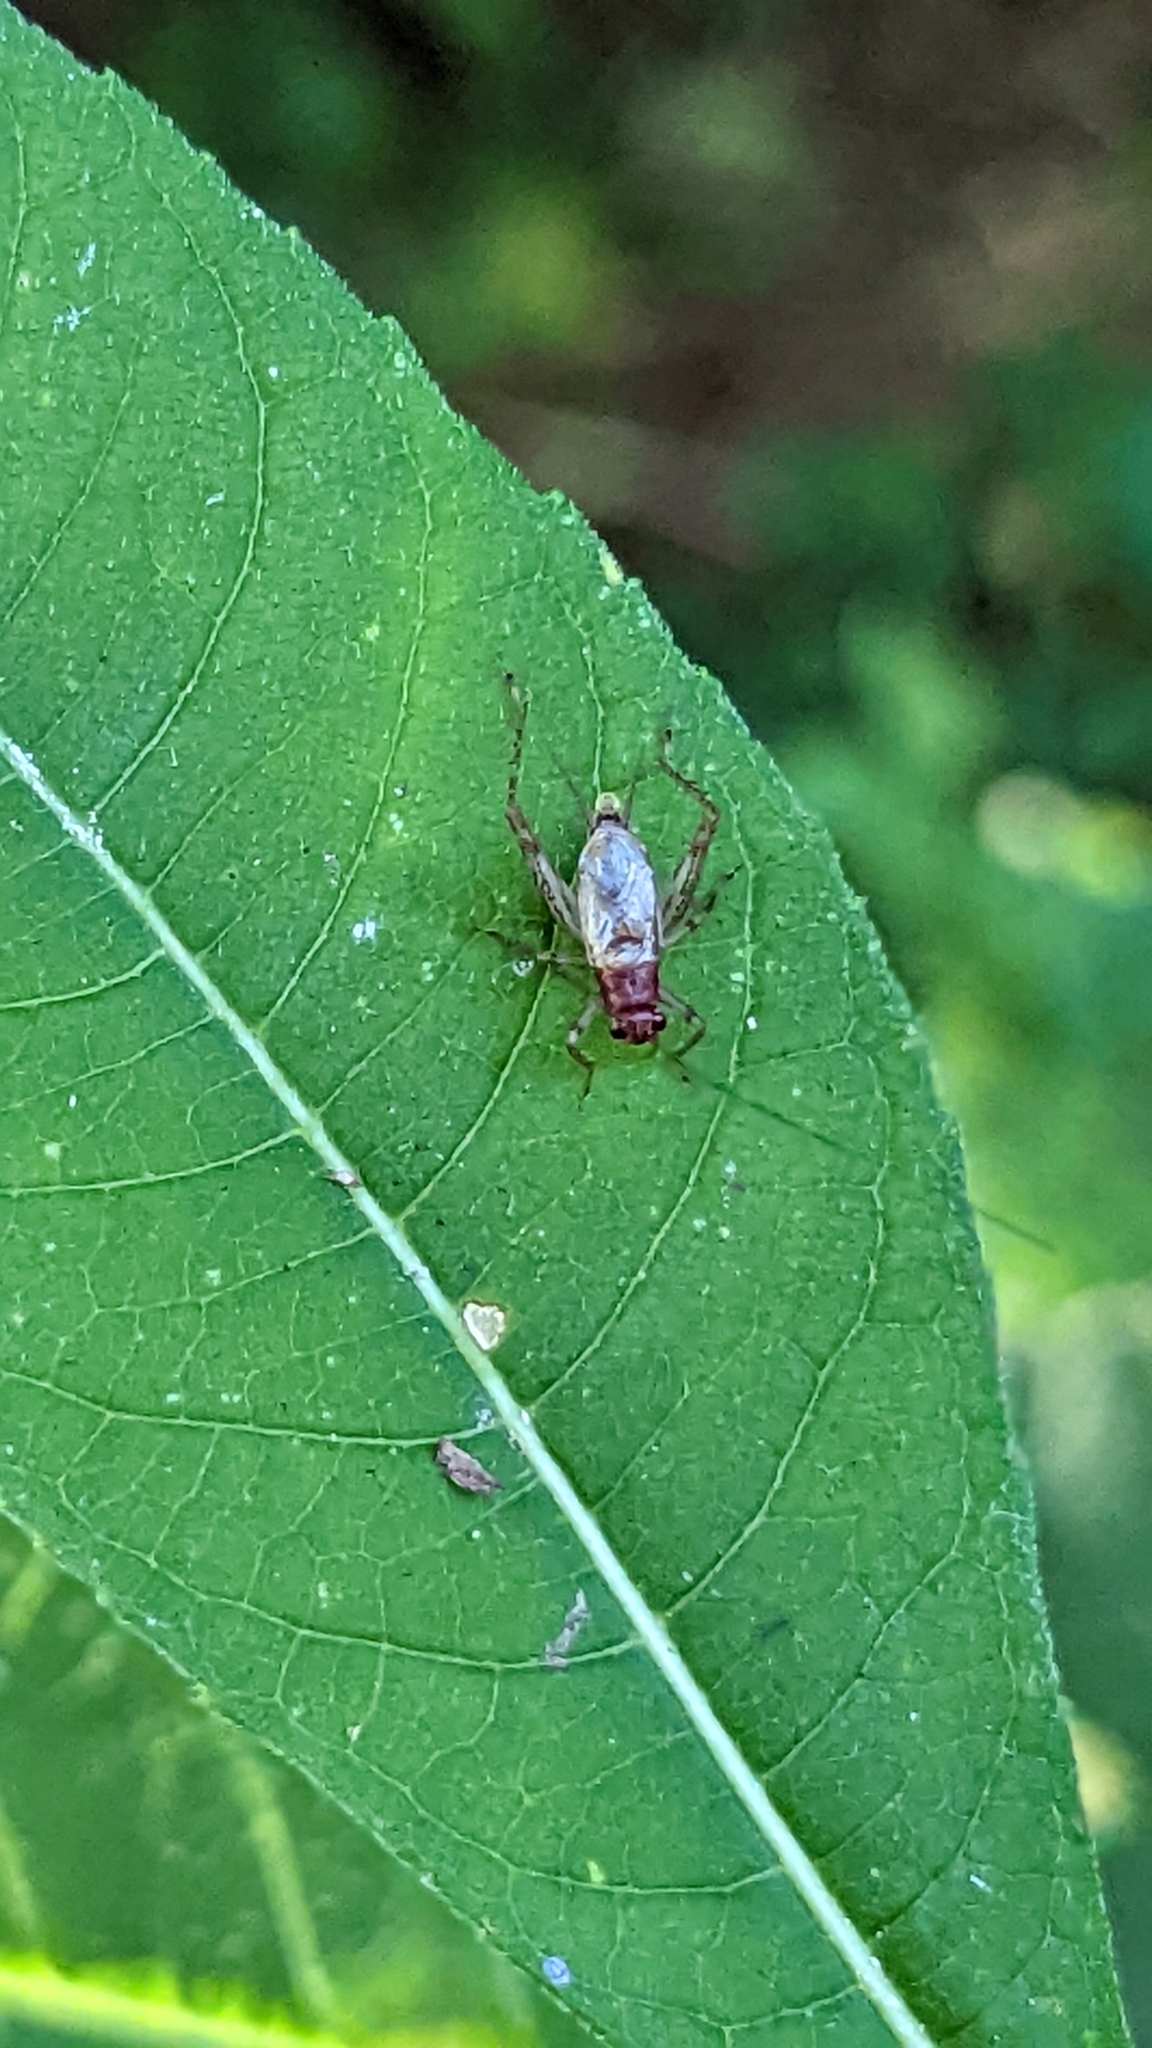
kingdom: Animalia
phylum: Arthropoda
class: Insecta
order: Orthoptera
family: Trigonidiidae
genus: Anaxipha
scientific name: Anaxipha
